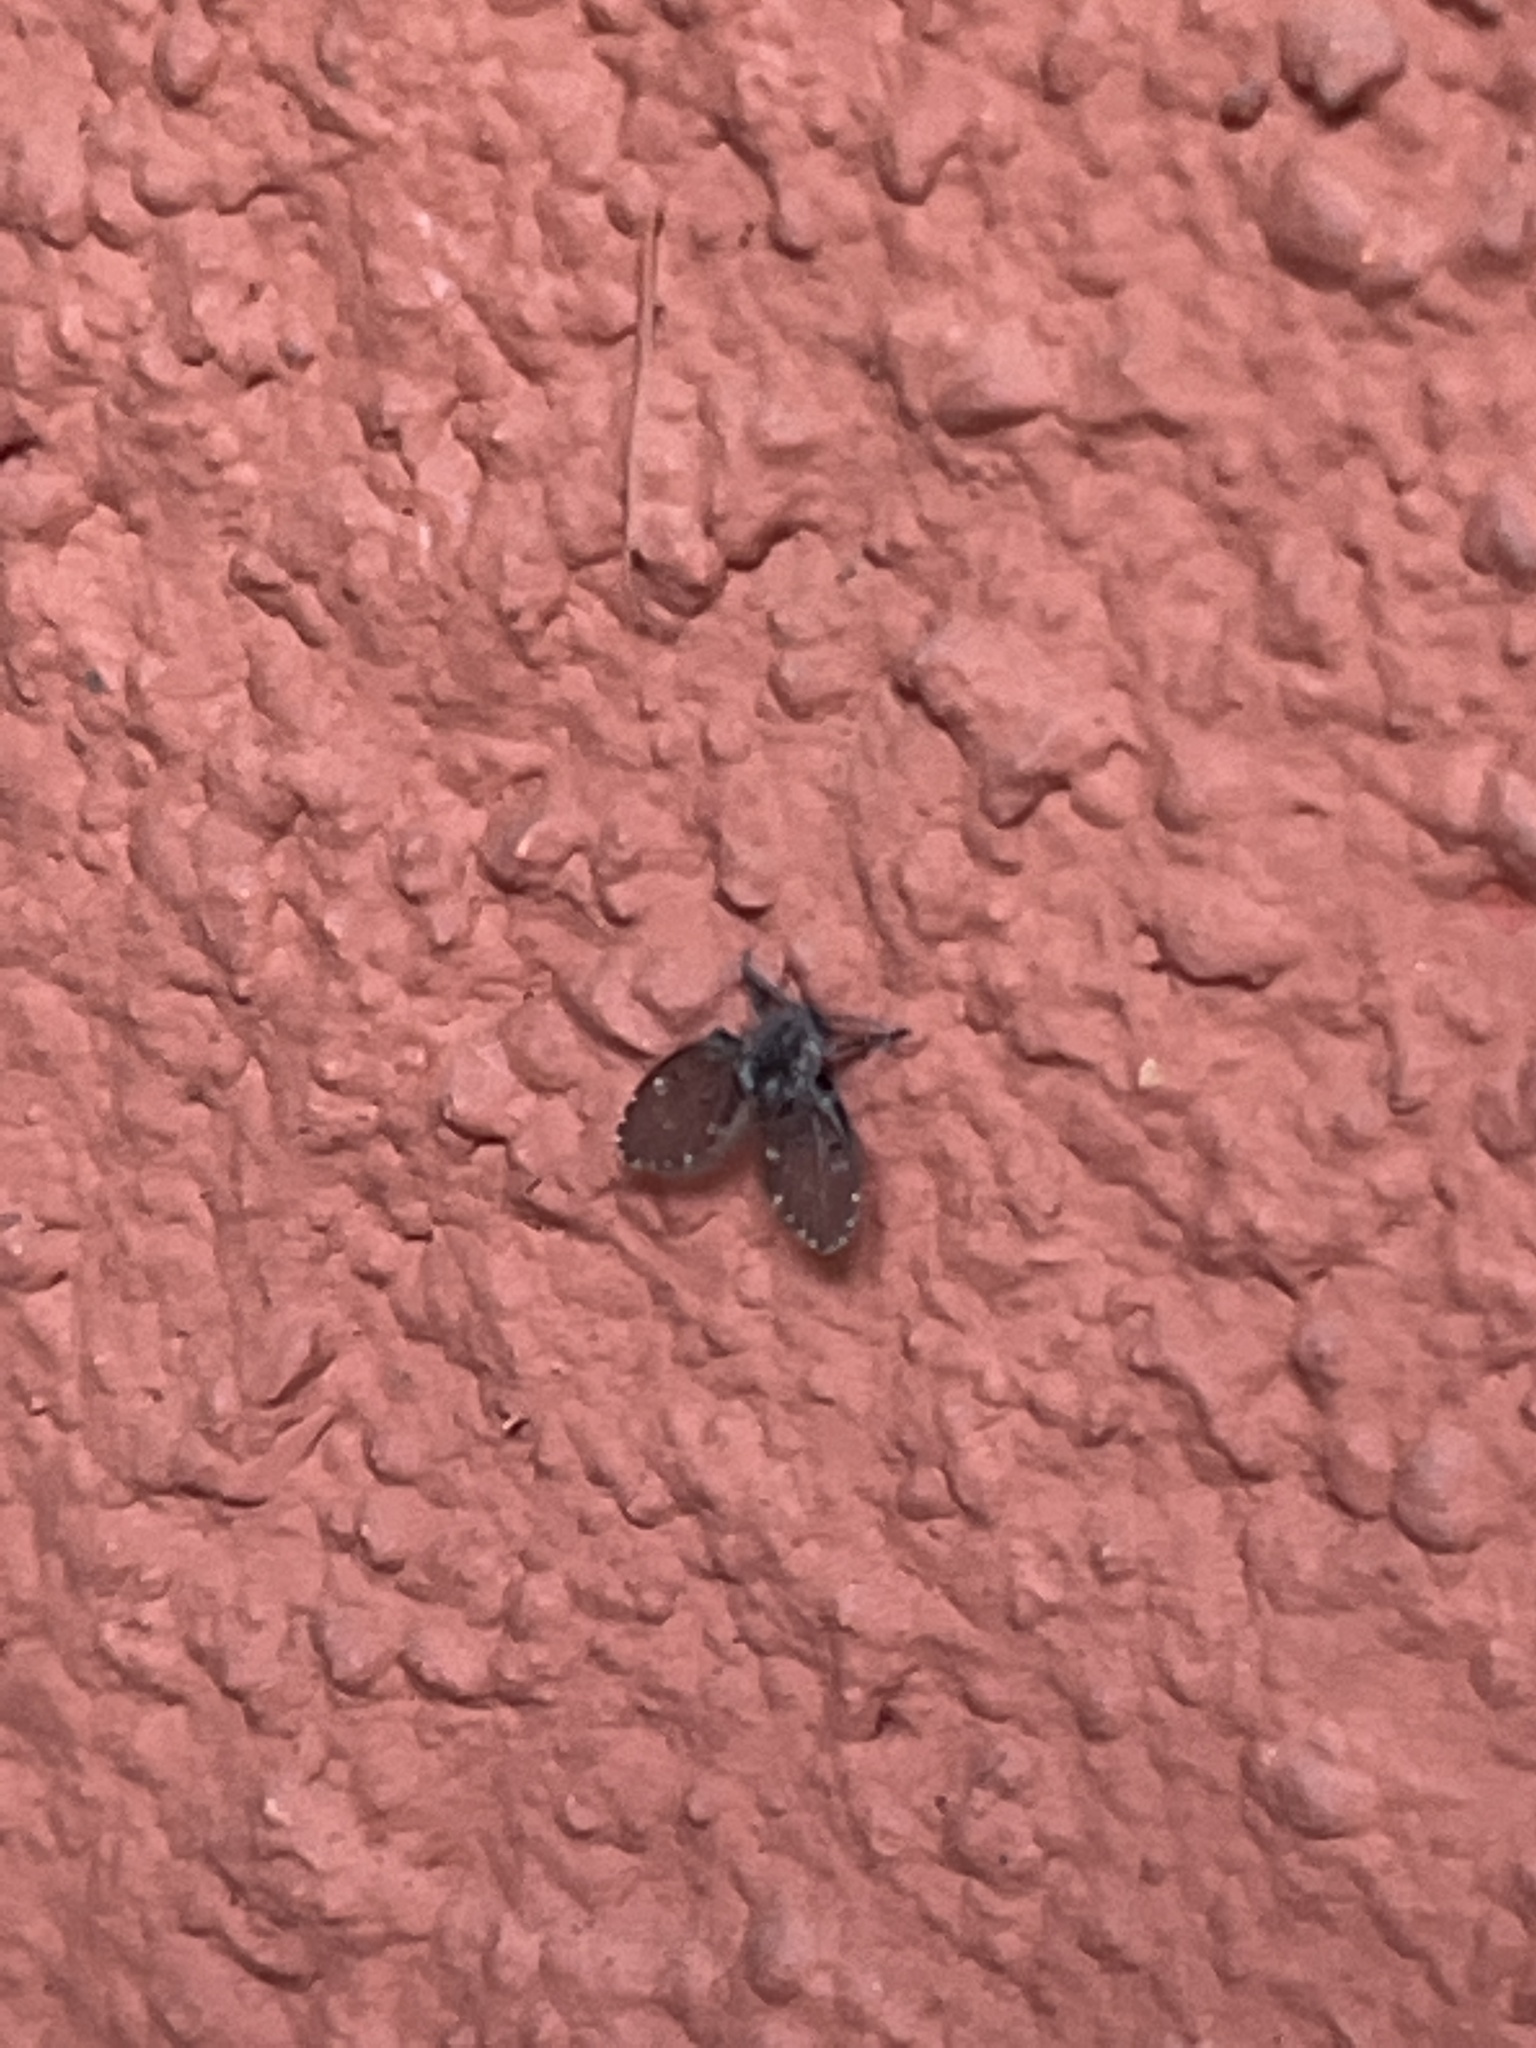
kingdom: Animalia
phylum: Arthropoda
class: Insecta
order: Diptera
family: Psychodidae
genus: Clogmia
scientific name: Clogmia albipunctatus
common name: White-spotted moth fly
